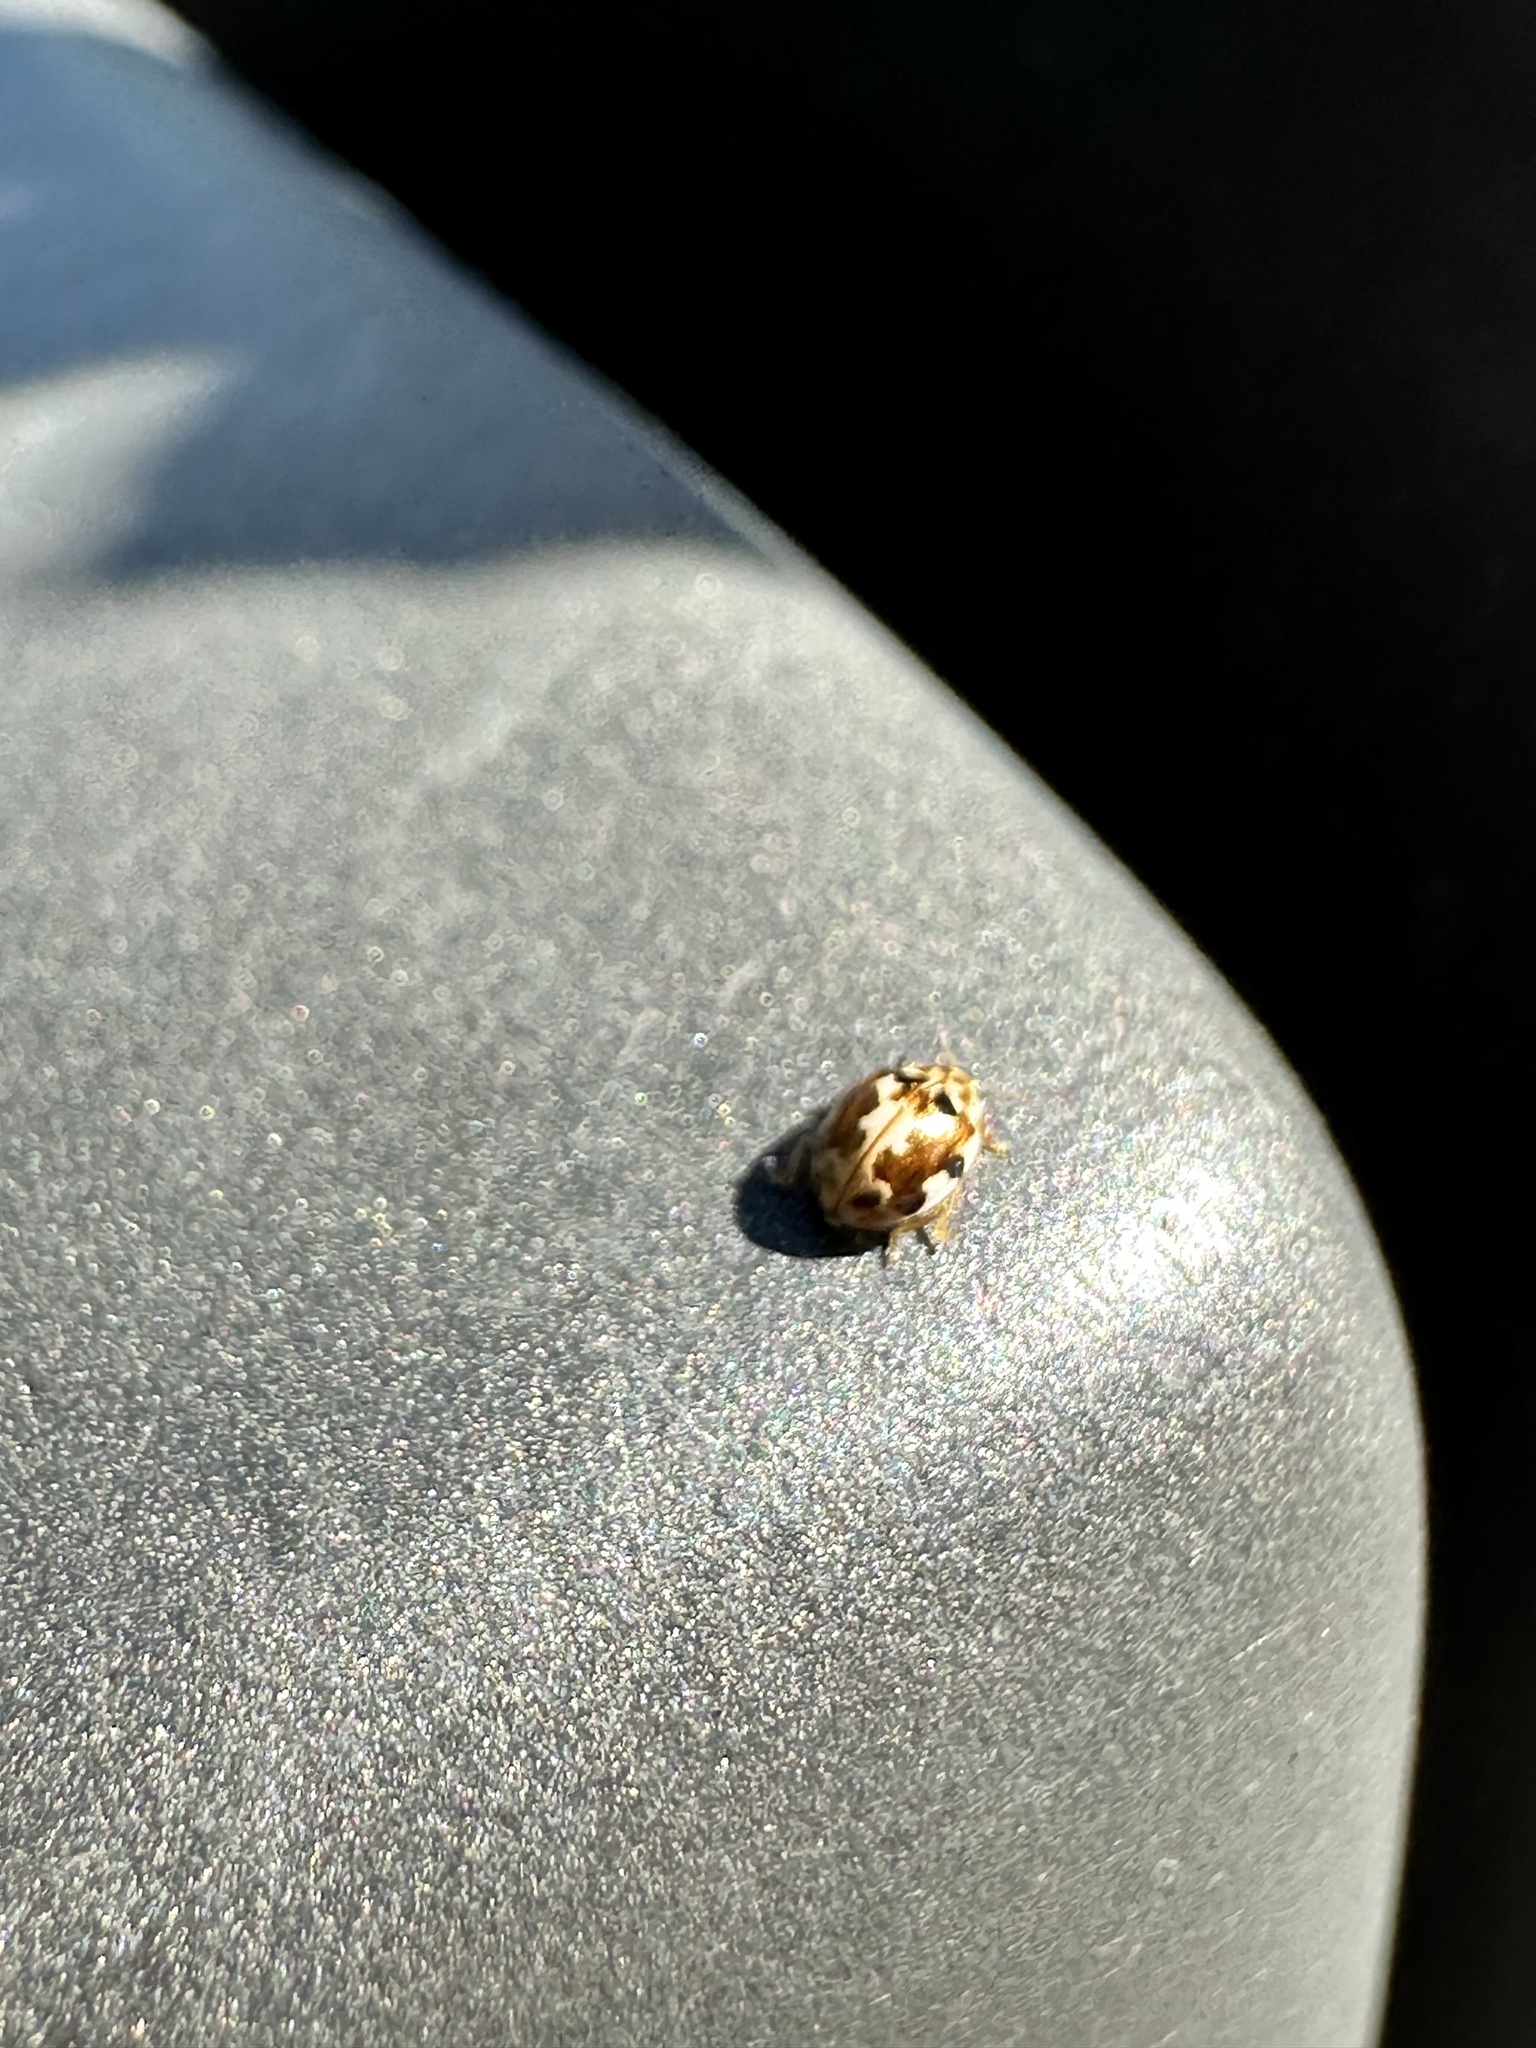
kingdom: Animalia
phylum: Arthropoda
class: Insecta
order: Coleoptera
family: Coccinellidae
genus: Psyllobora
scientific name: Psyllobora vigintimaculata
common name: Ladybird beetle
